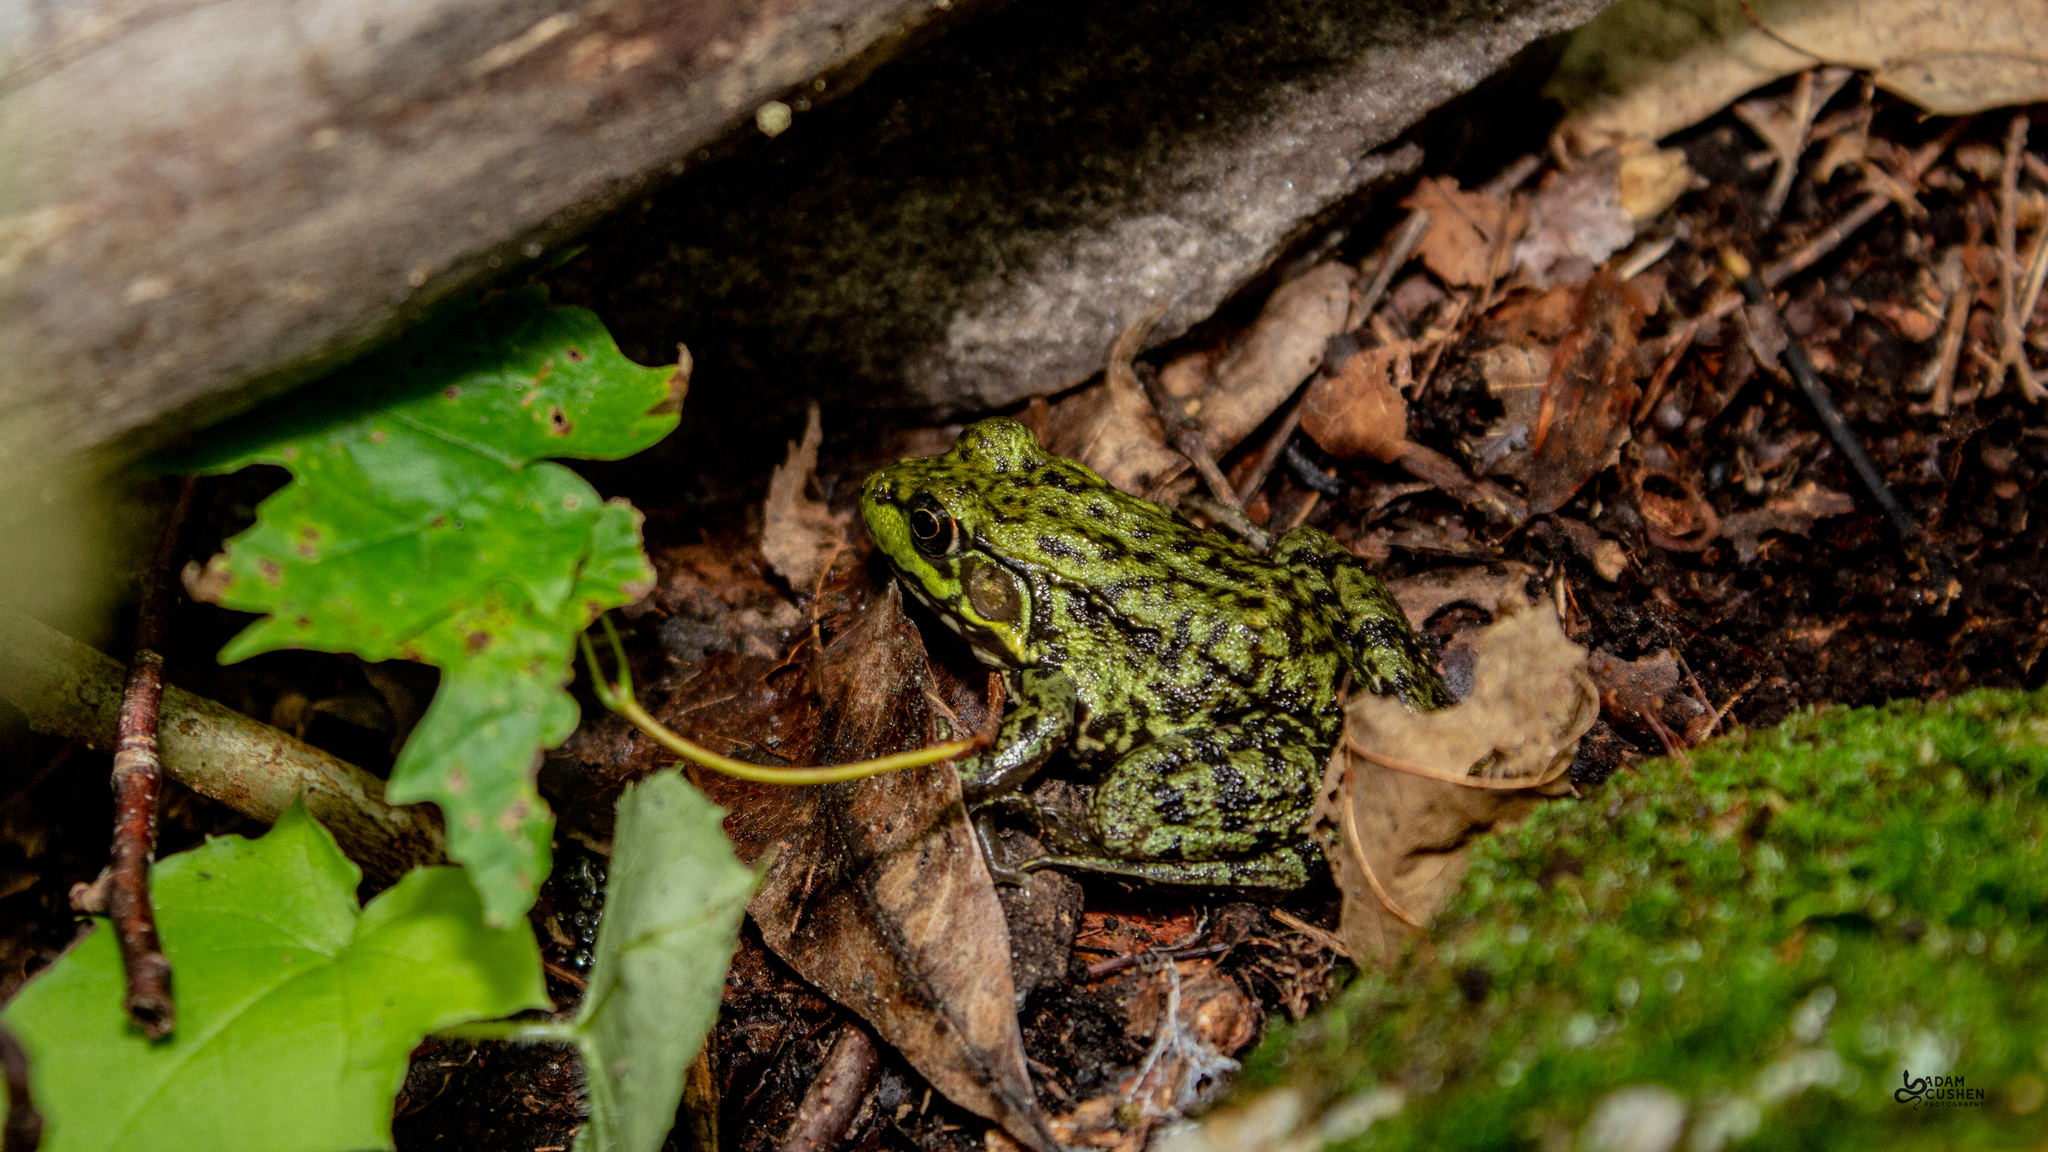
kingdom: Animalia
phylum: Chordata
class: Amphibia
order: Anura
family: Ranidae
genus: Lithobates
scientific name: Lithobates clamitans
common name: Green frog
